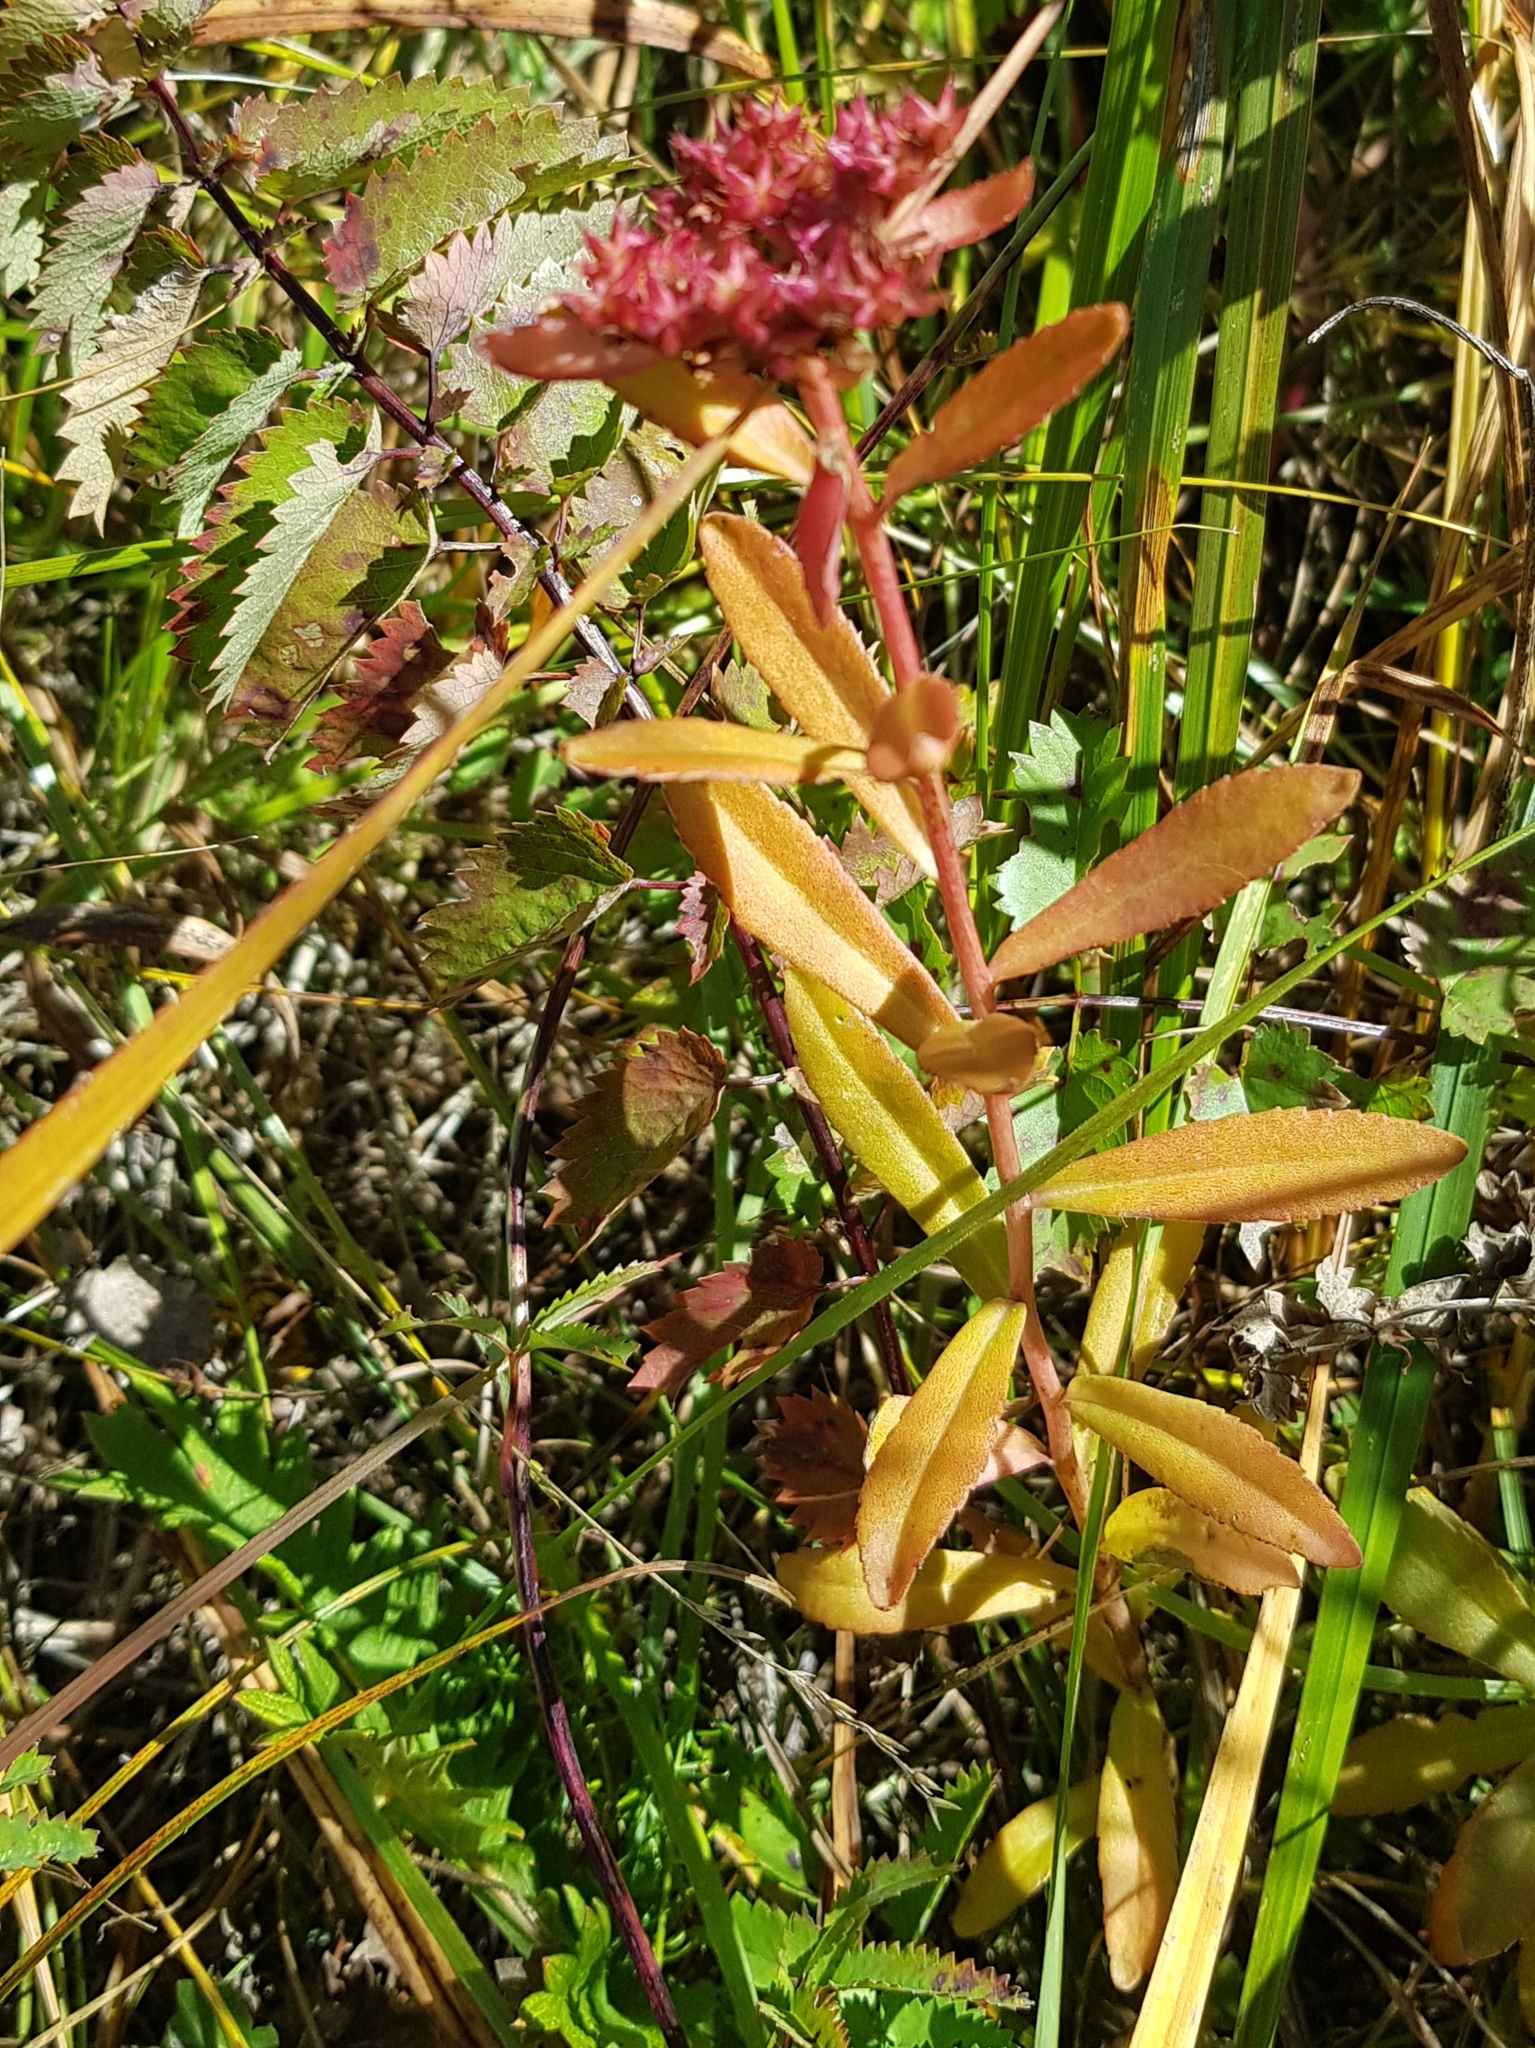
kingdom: Plantae
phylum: Tracheophyta
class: Magnoliopsida
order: Saxifragales
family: Crassulaceae
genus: Phedimus
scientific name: Phedimus aizoon
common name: Orpin aizoon
